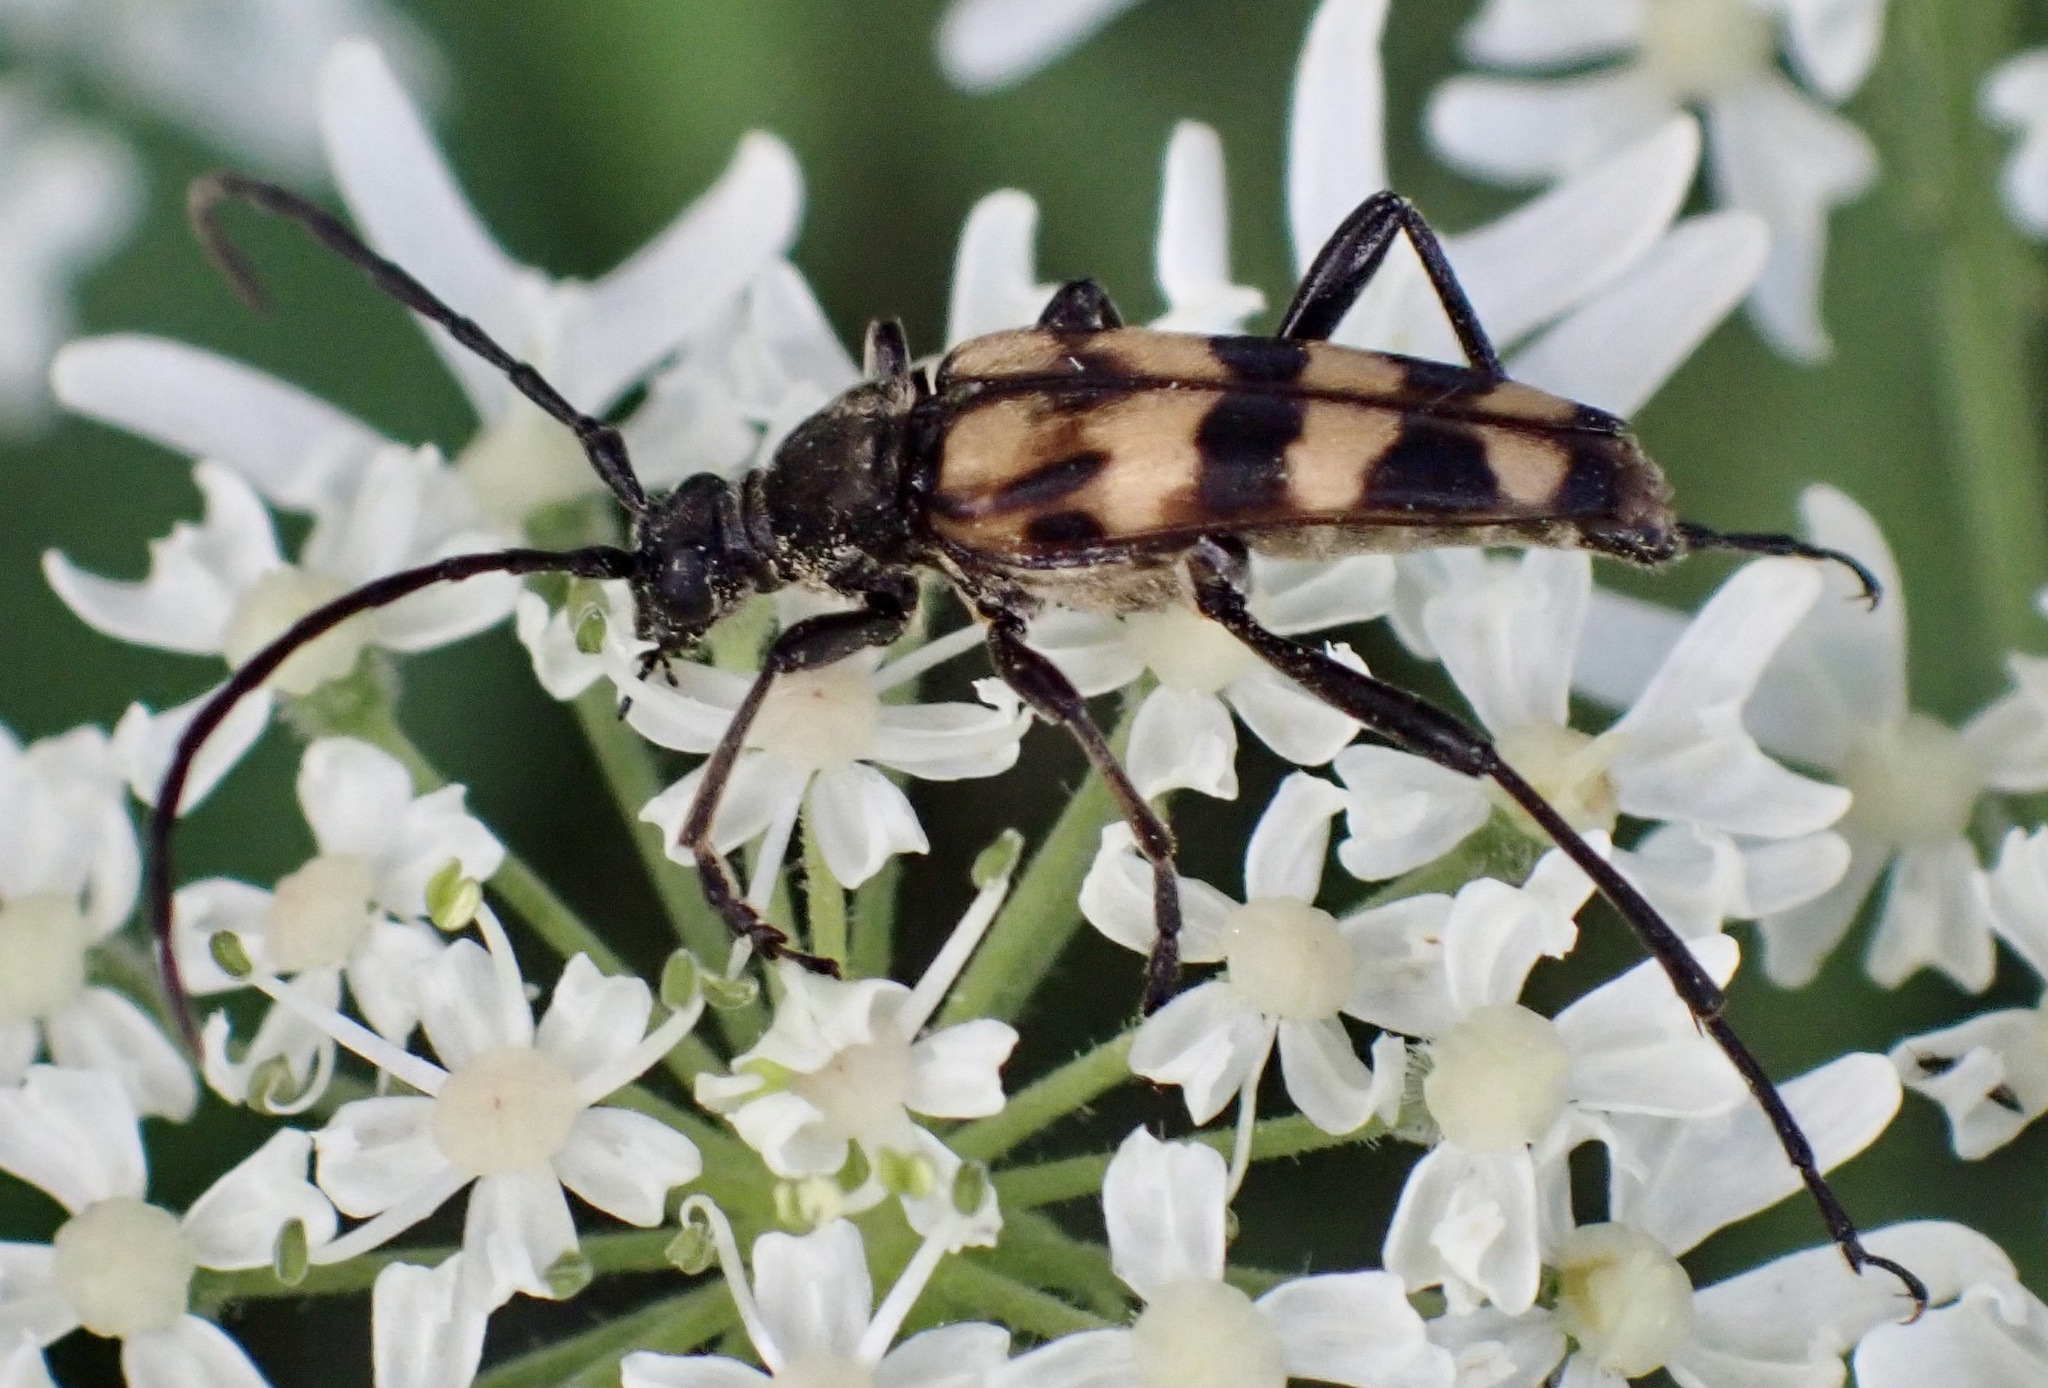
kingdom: Animalia
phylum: Arthropoda
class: Insecta
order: Coleoptera
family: Cerambycidae
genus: Leptura
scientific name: Leptura quadrifasciata
